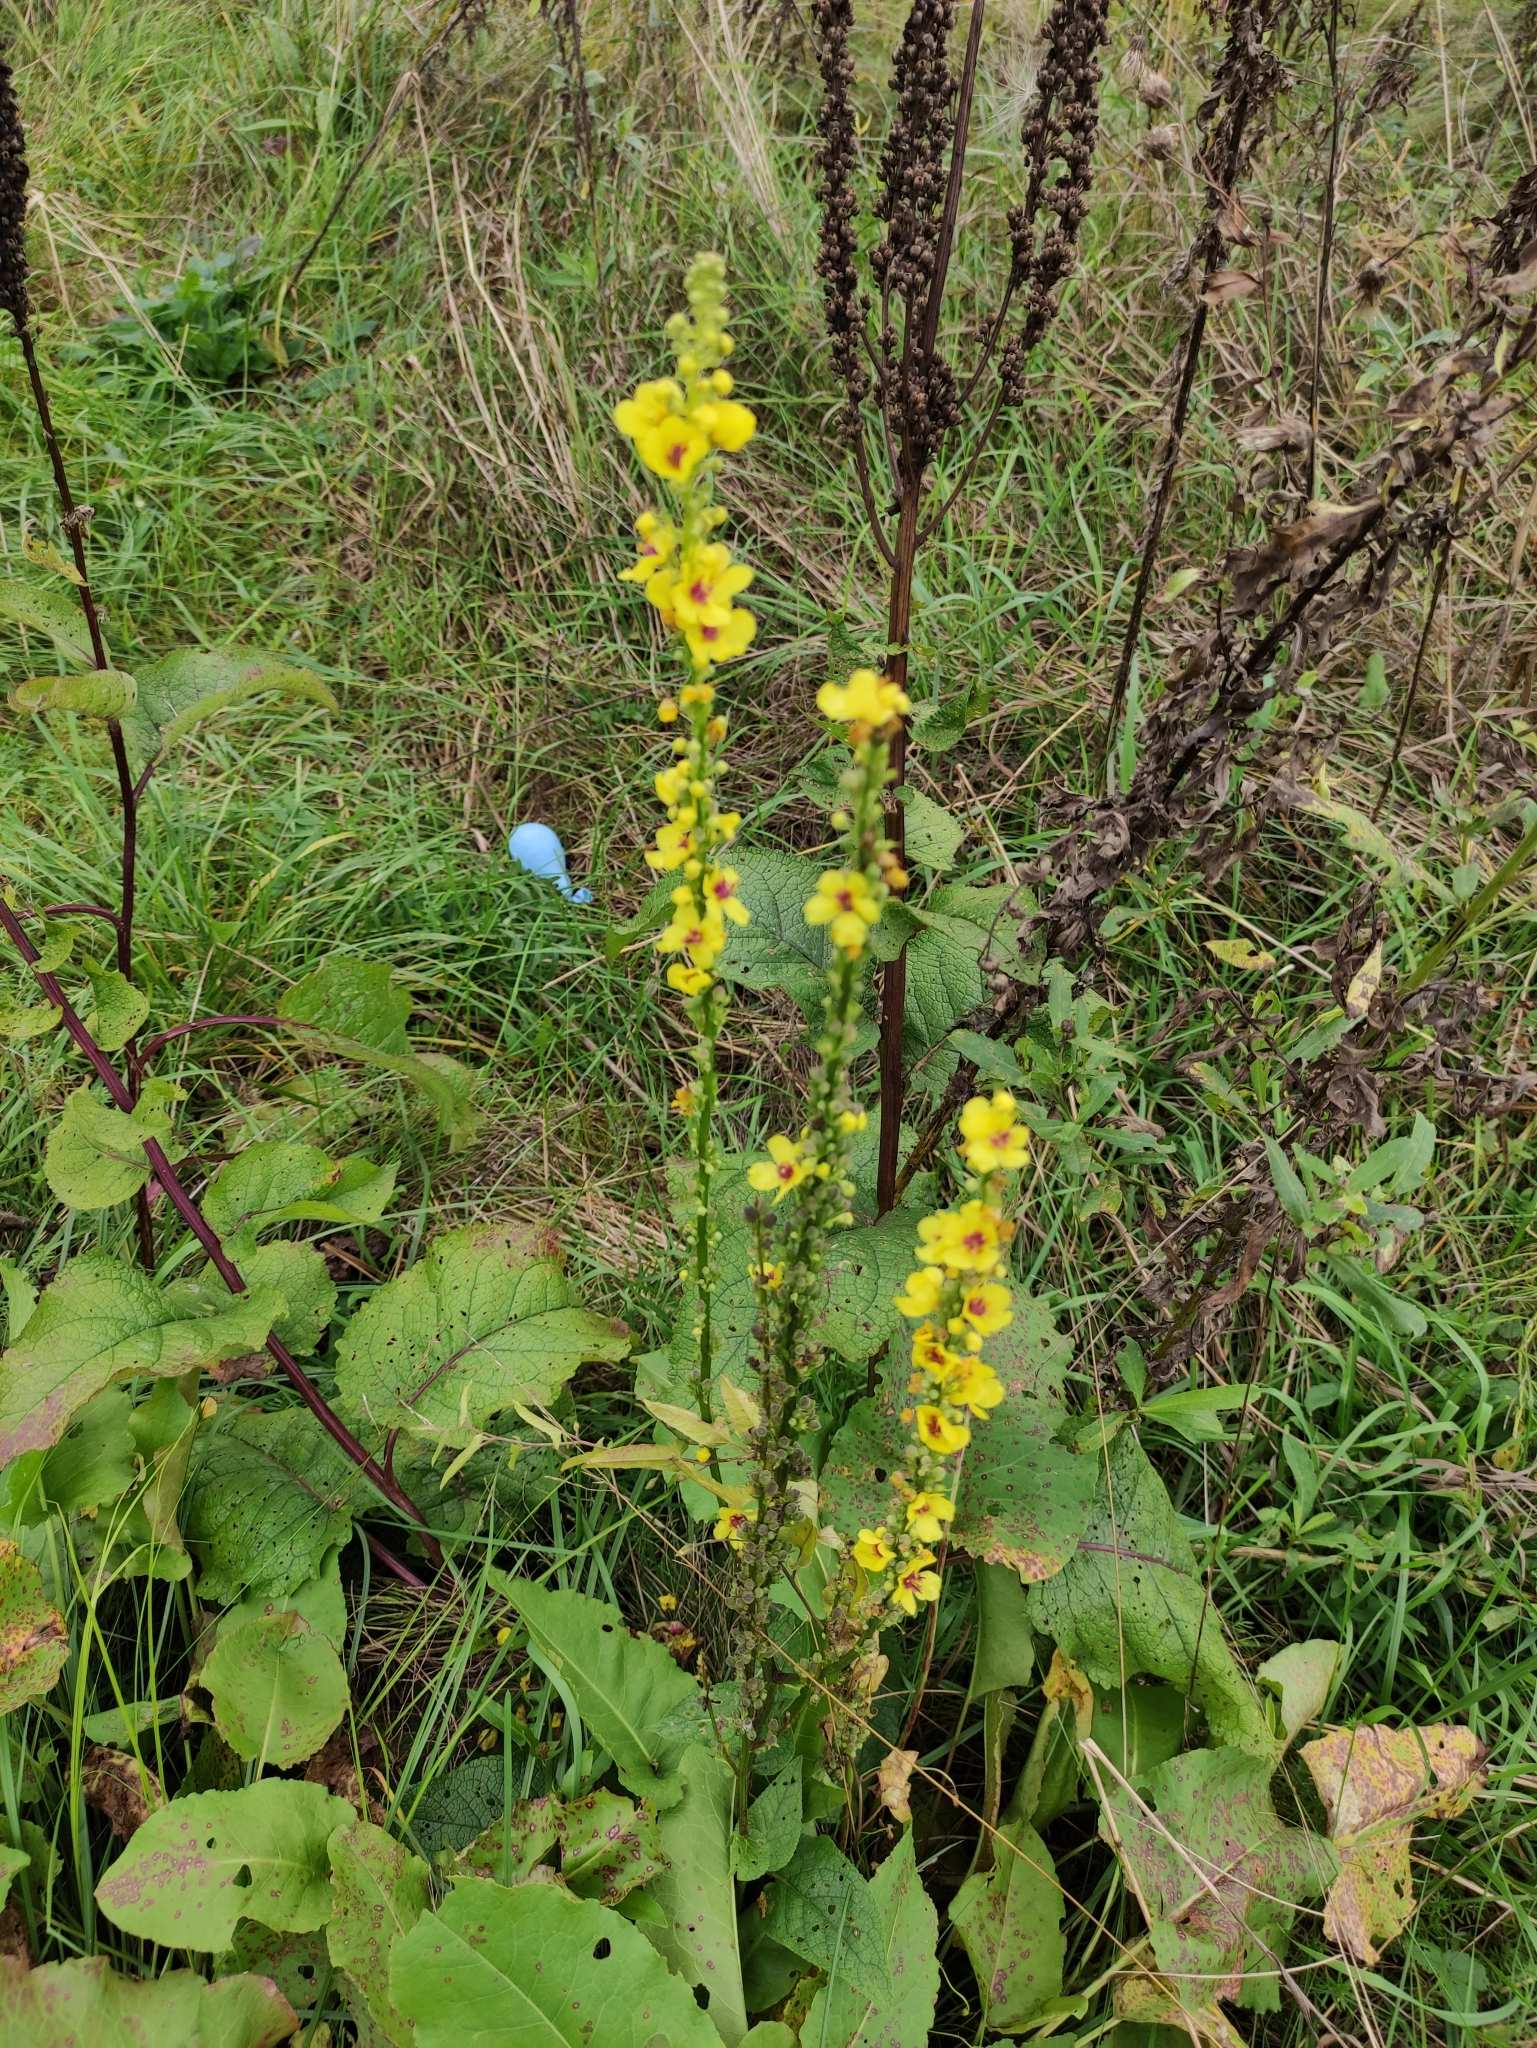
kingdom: Plantae
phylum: Tracheophyta
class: Magnoliopsida
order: Lamiales
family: Scrophulariaceae
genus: Verbascum
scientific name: Verbascum nigrum
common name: Dark mullein
